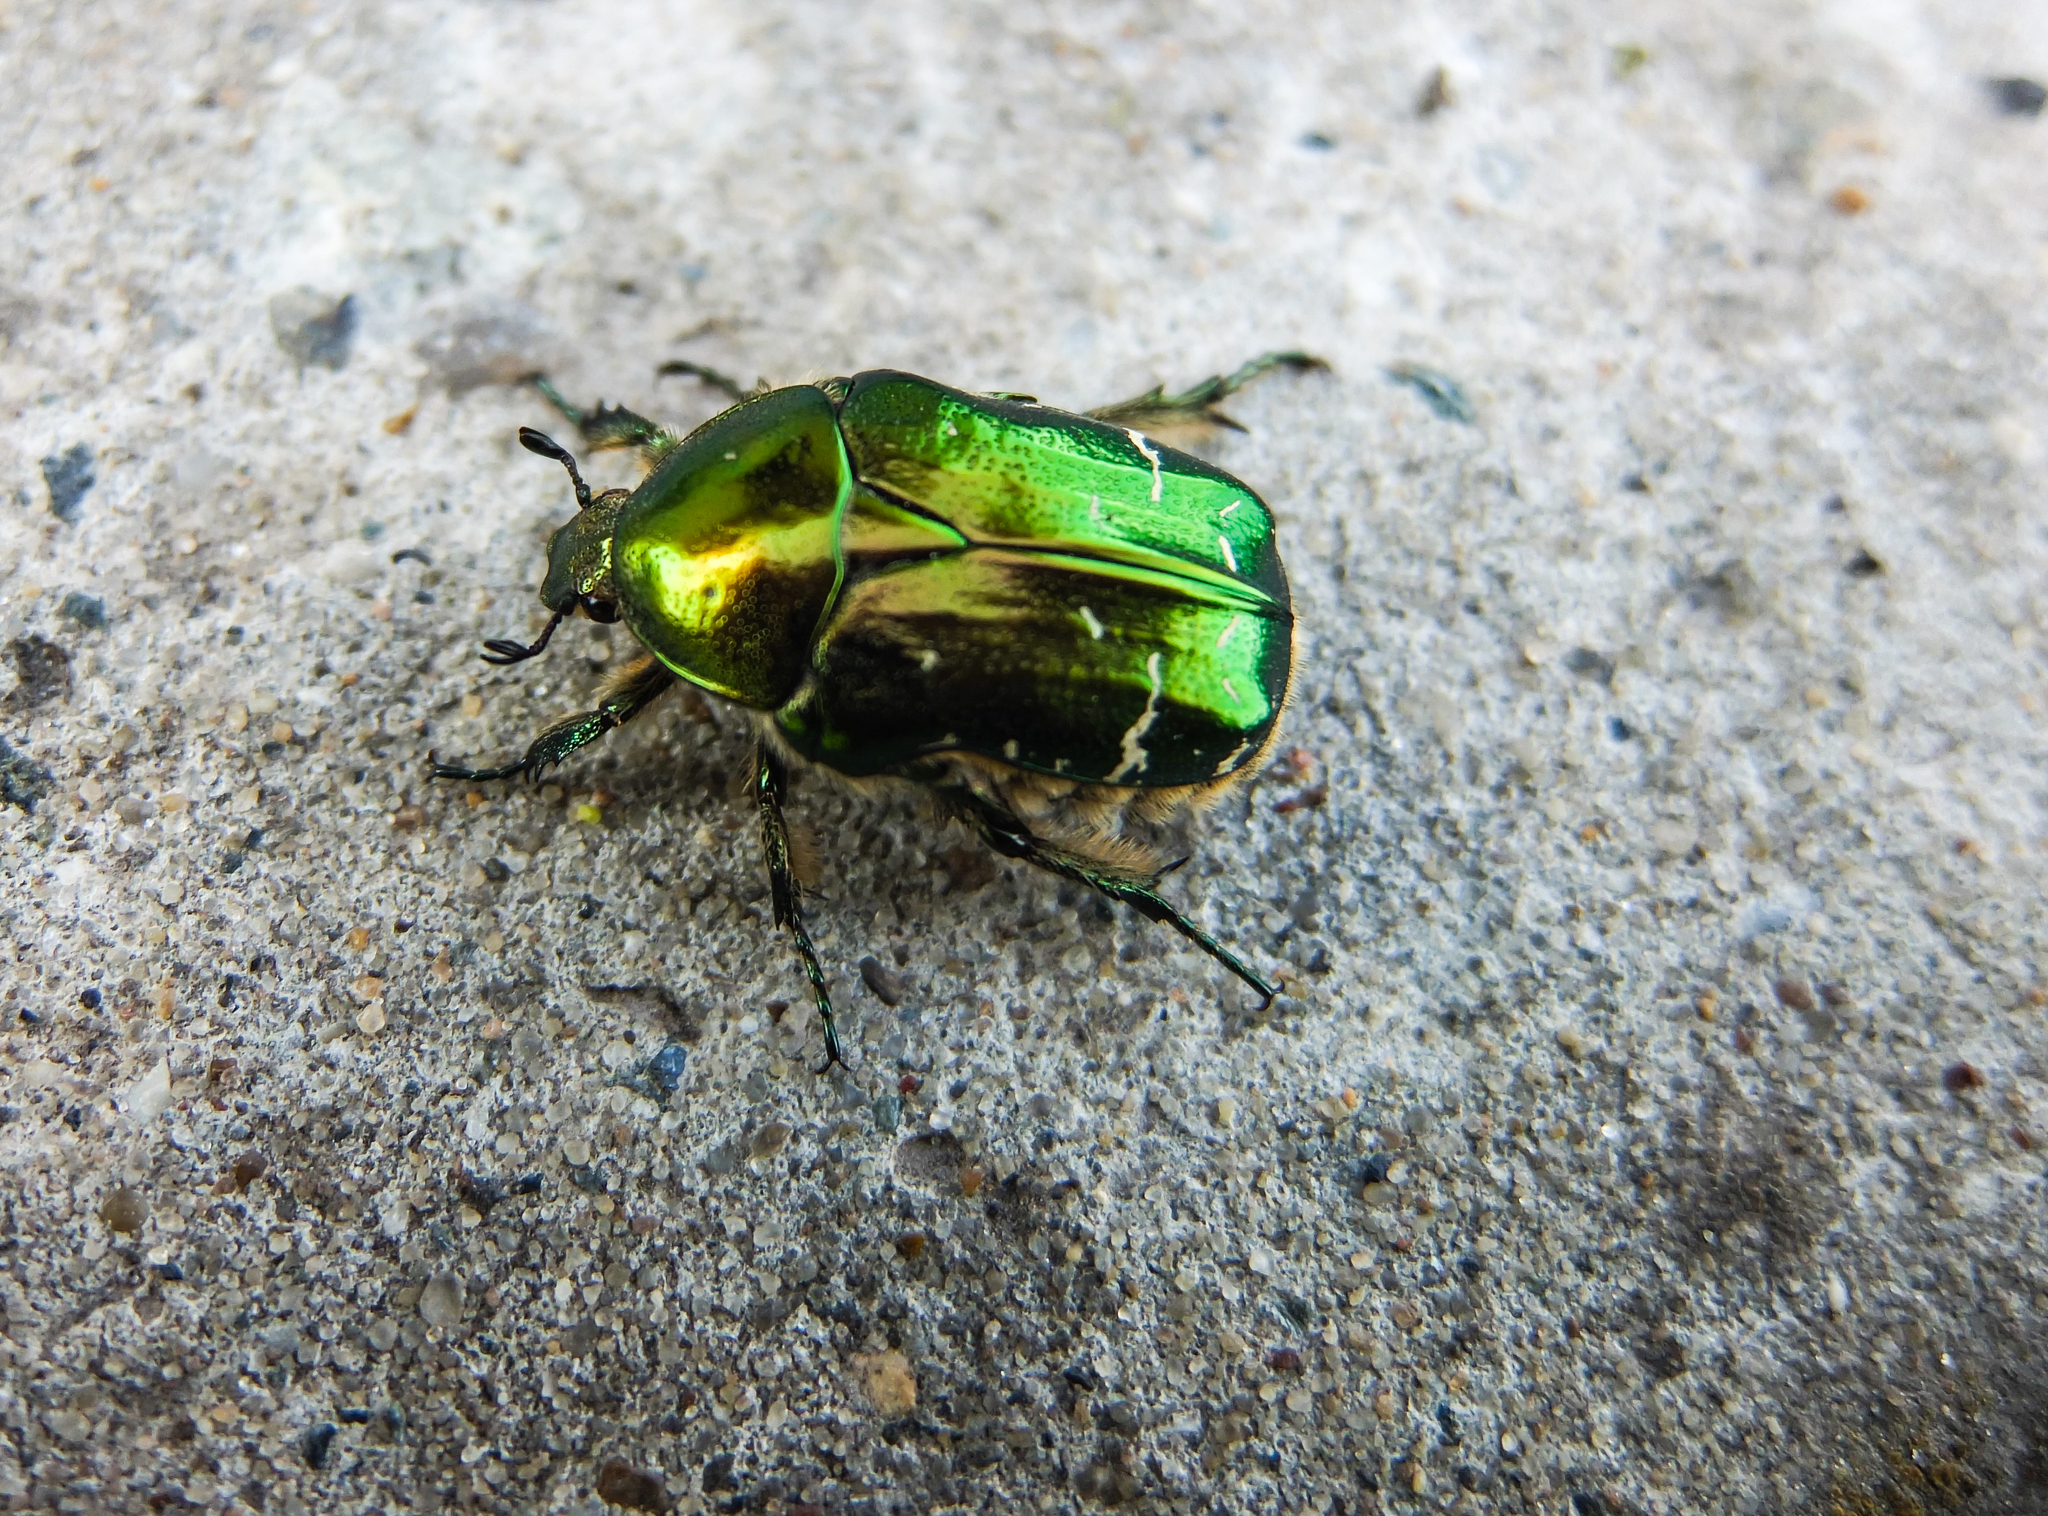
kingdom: Animalia
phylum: Arthropoda
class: Insecta
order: Coleoptera
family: Scarabaeidae
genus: Cetonia
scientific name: Cetonia aurata
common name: Rose chafer
